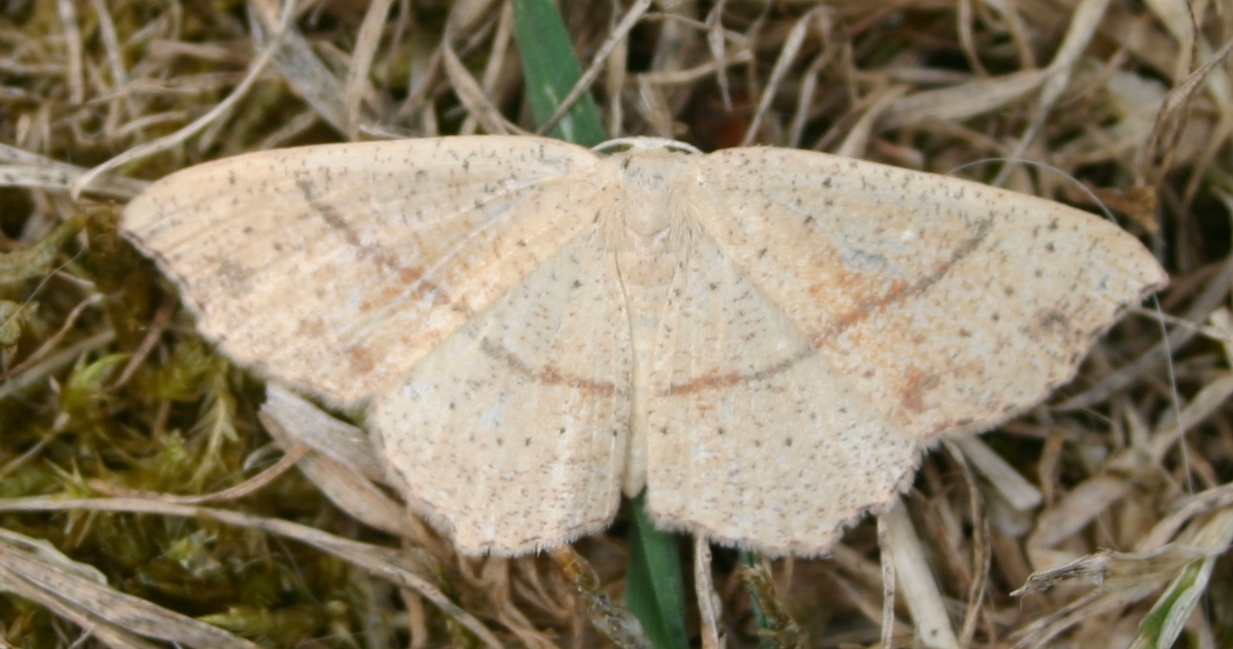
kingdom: Animalia
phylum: Arthropoda
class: Insecta
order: Lepidoptera
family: Geometridae
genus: Cyclophora
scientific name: Cyclophora punctaria
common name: Maiden's blush
